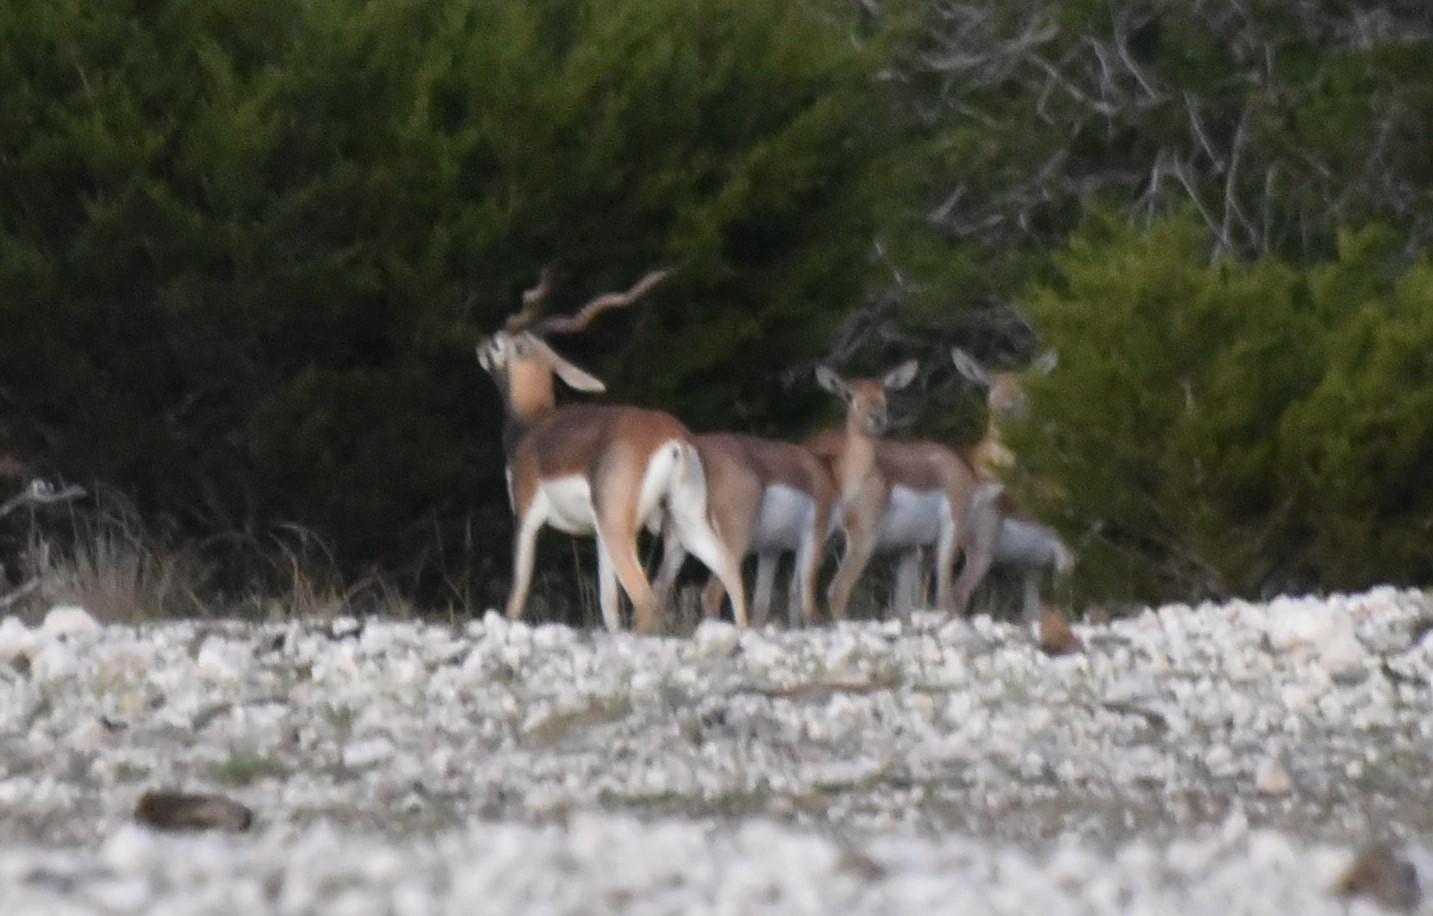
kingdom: Animalia
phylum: Chordata
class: Mammalia
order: Artiodactyla
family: Bovidae
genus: Antilope
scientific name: Antilope cervicapra
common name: Blackbuck
